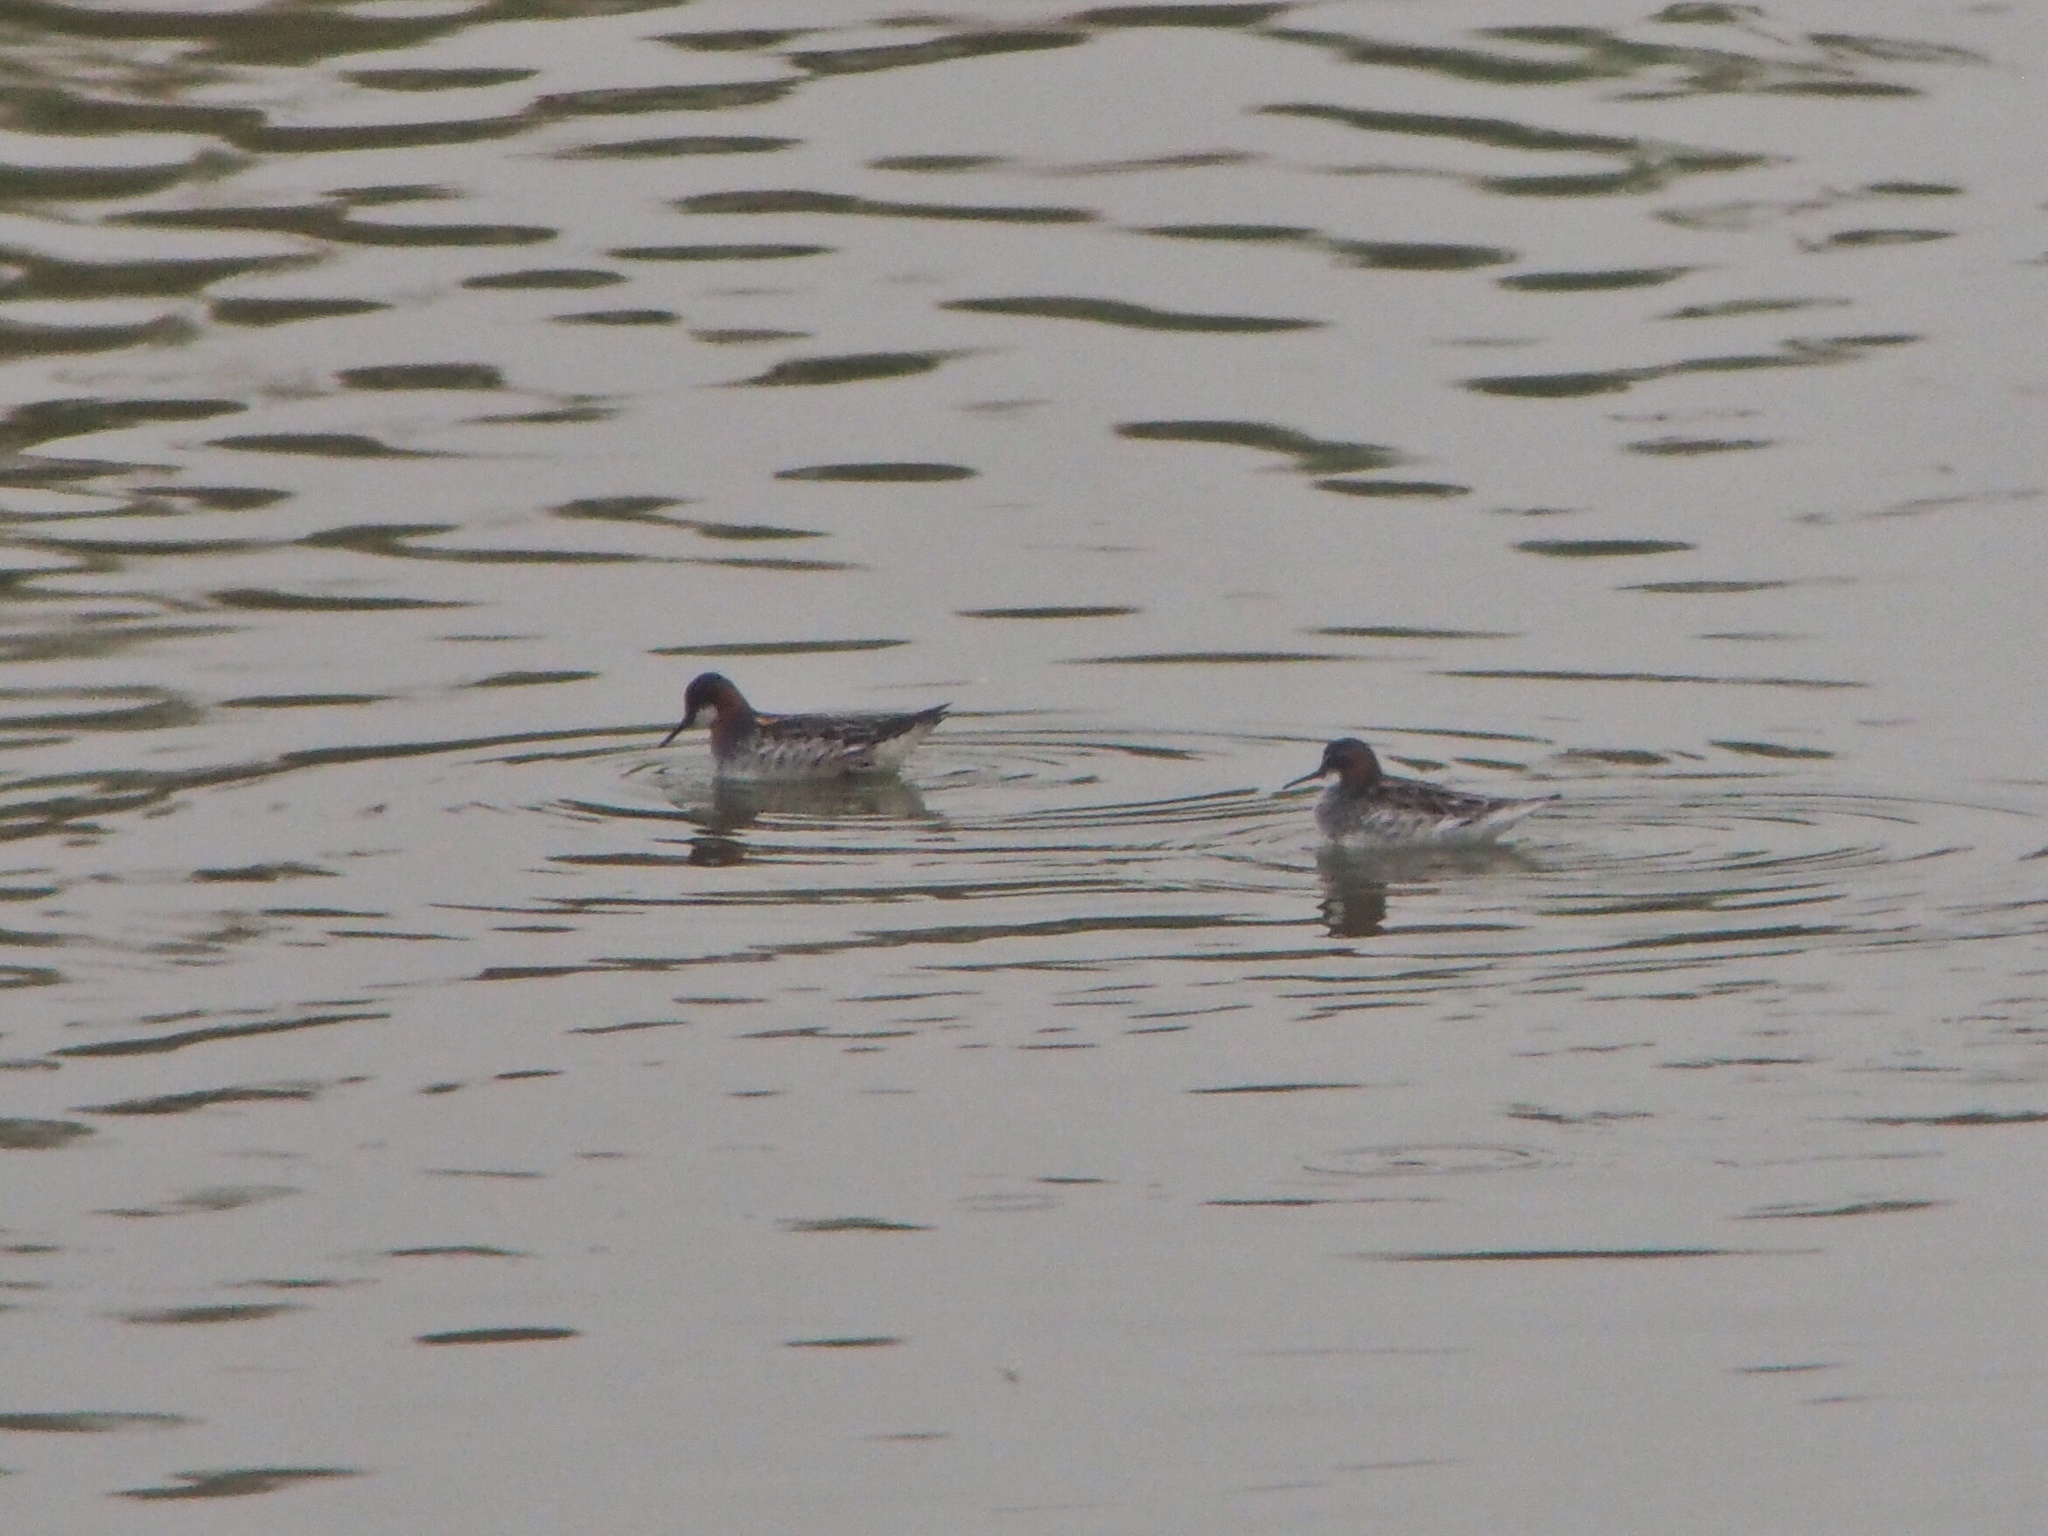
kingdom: Animalia
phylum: Chordata
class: Aves
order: Charadriiformes
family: Scolopacidae
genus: Phalaropus
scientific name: Phalaropus lobatus
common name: Red-necked phalarope
